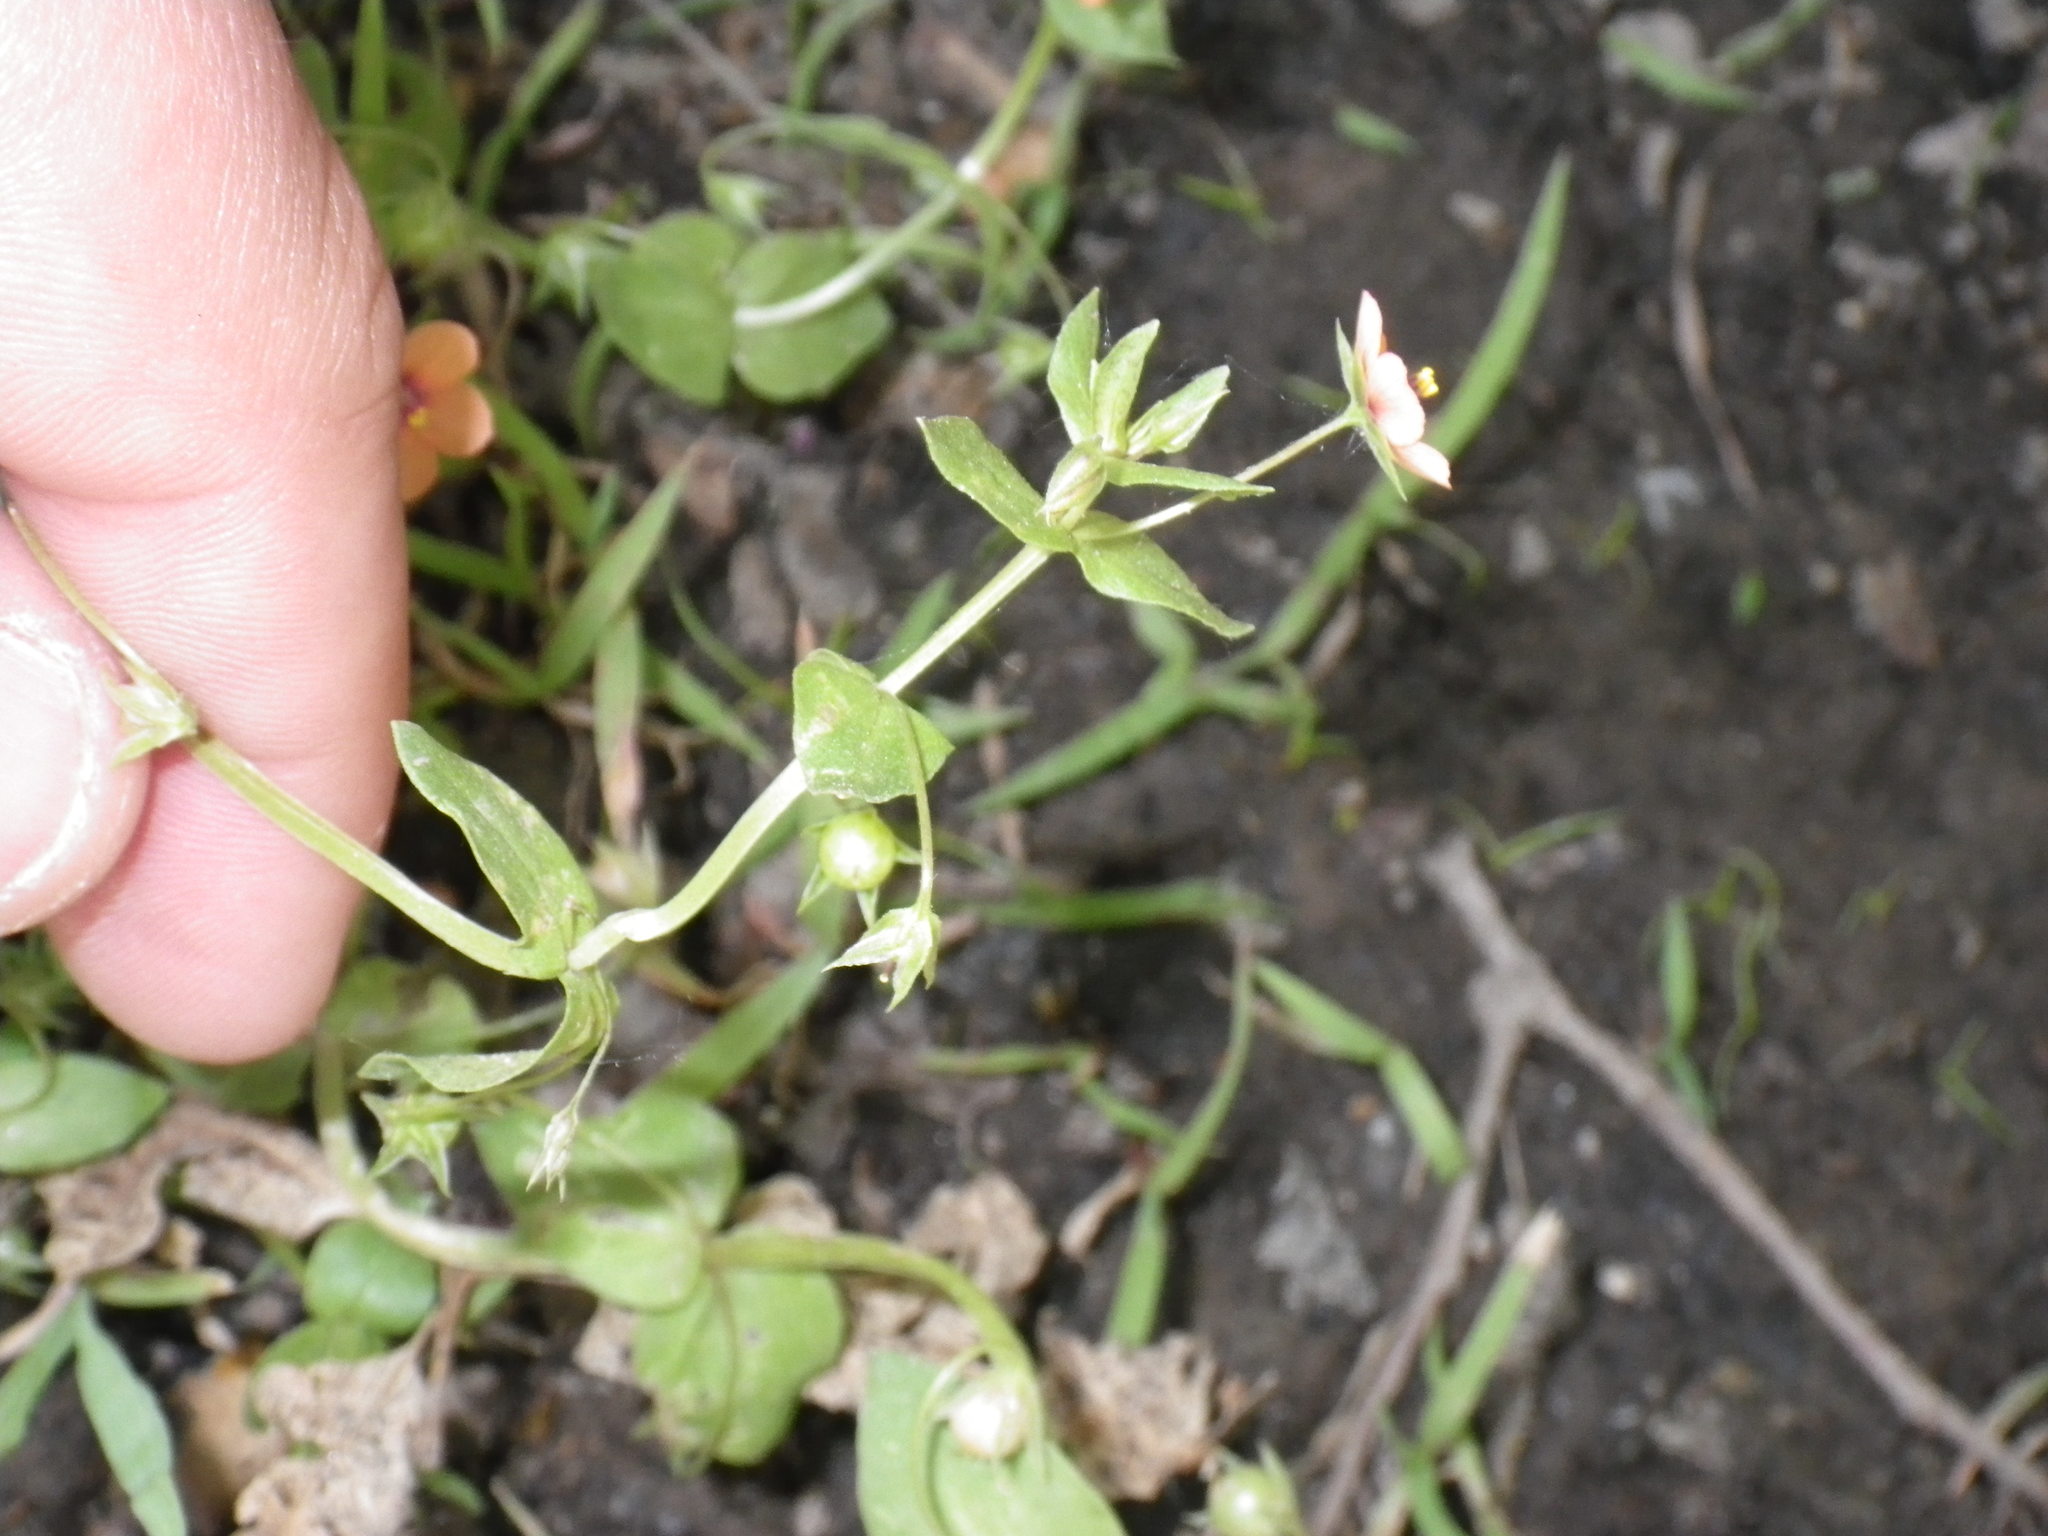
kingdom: Plantae
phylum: Tracheophyta
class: Magnoliopsida
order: Ericales
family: Primulaceae
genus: Lysimachia
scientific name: Lysimachia arvensis
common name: Scarlet pimpernel
